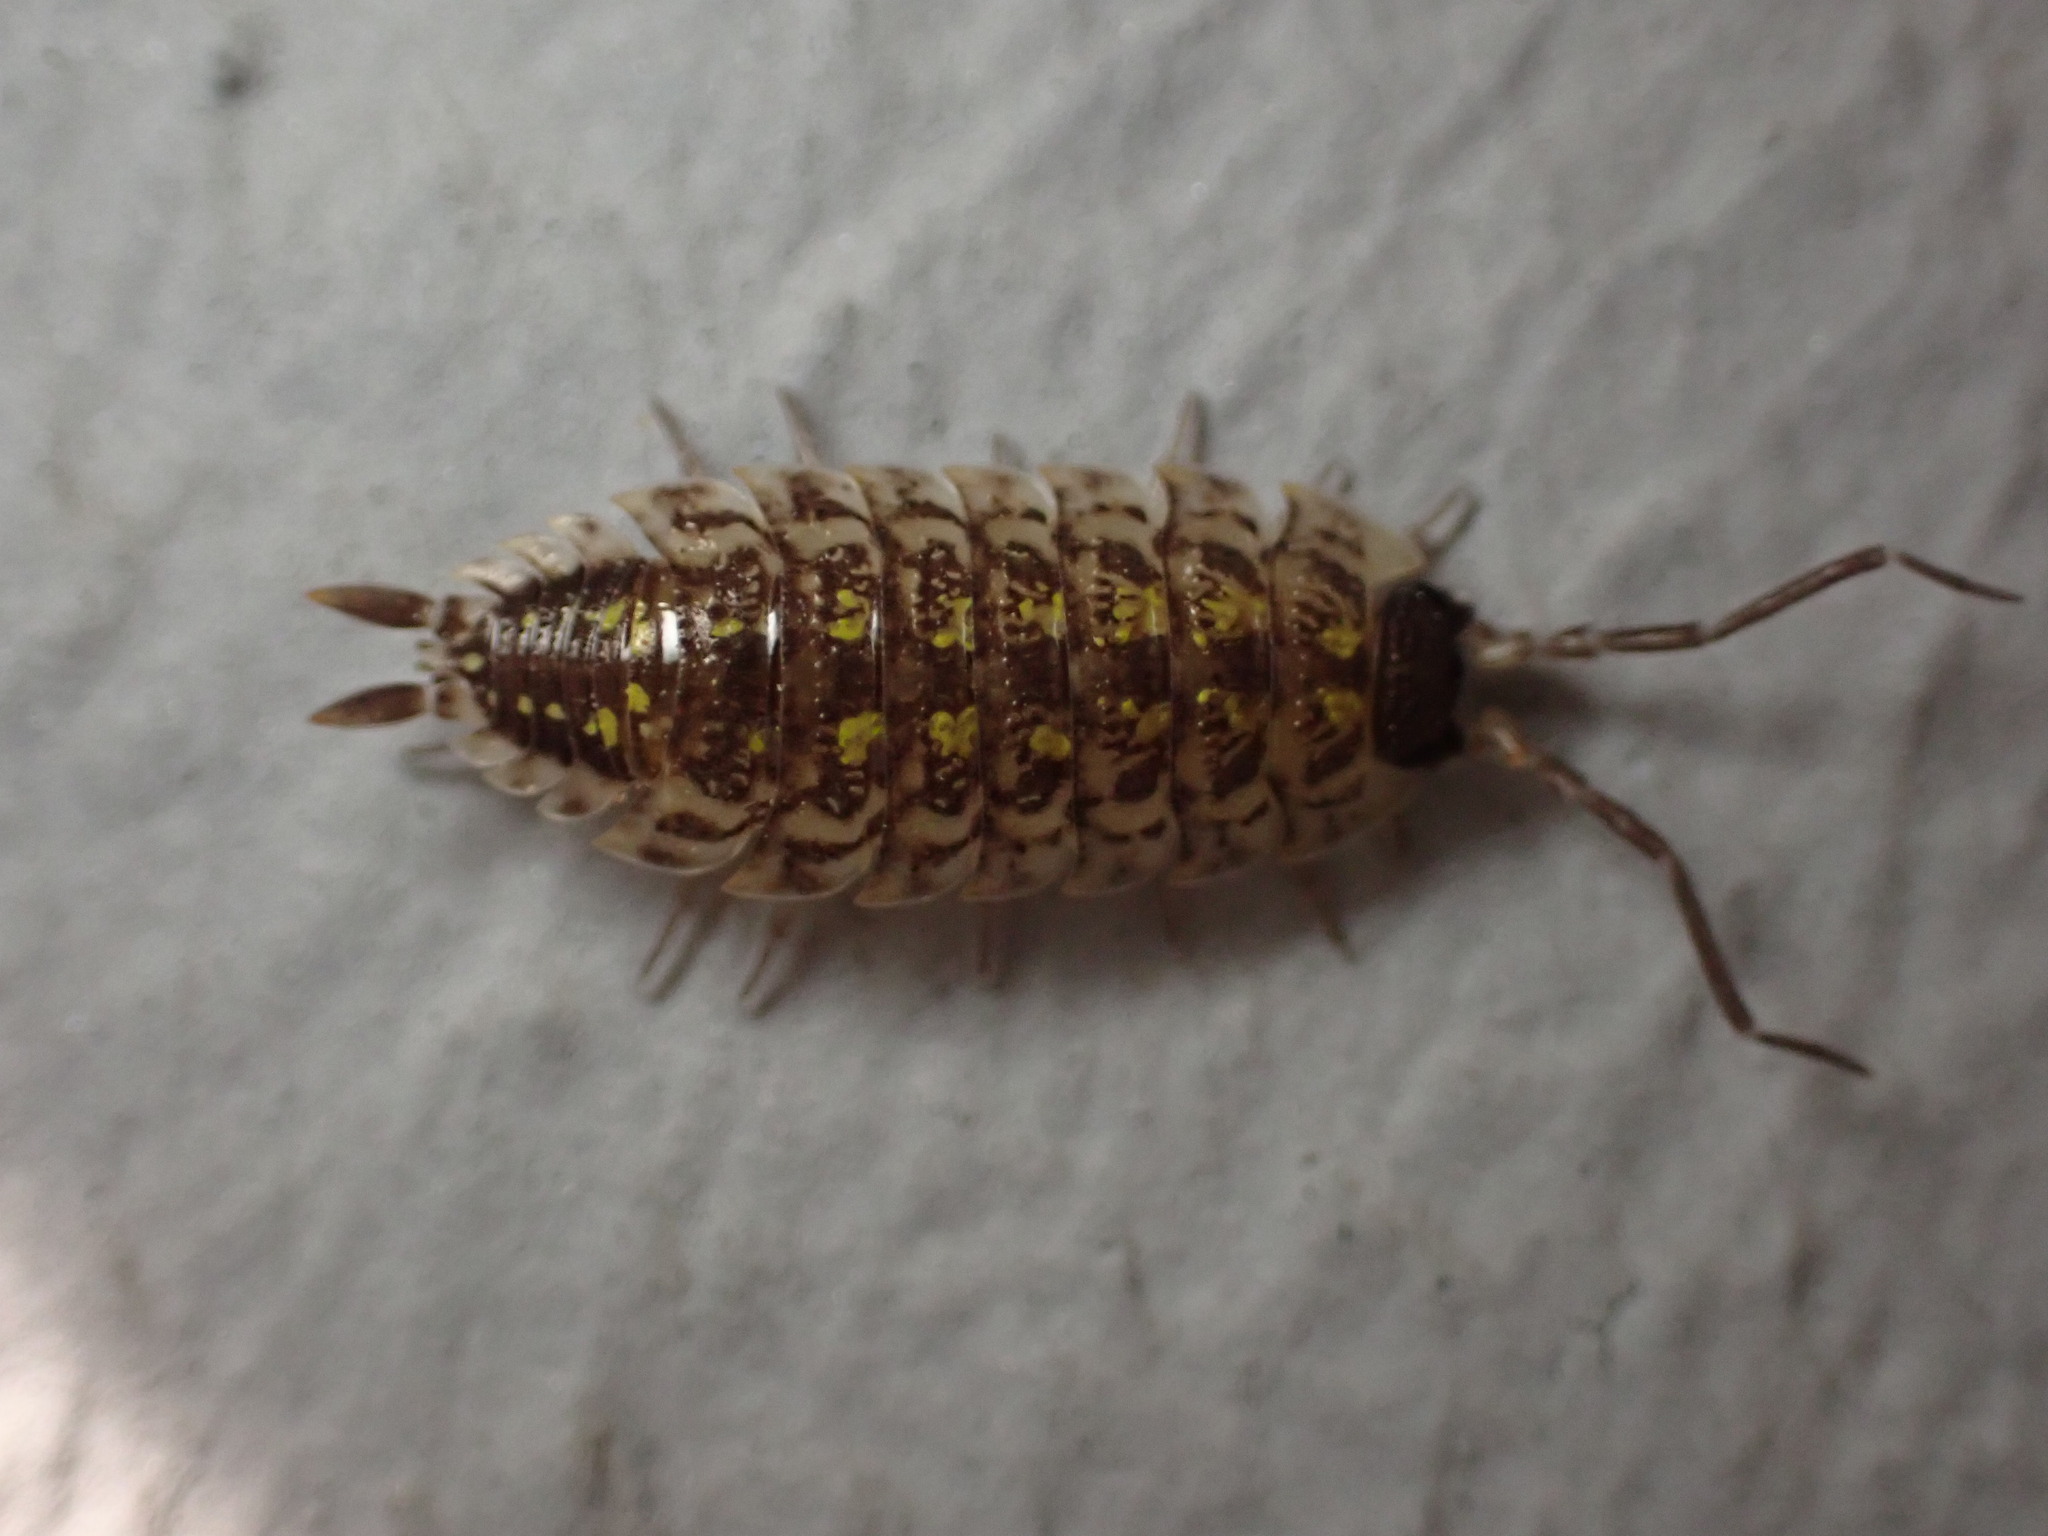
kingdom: Animalia
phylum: Arthropoda
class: Malacostraca
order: Isopoda
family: Porcellionidae
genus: Porcellio
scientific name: Porcellio spinicornis
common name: Painted woodlouse
